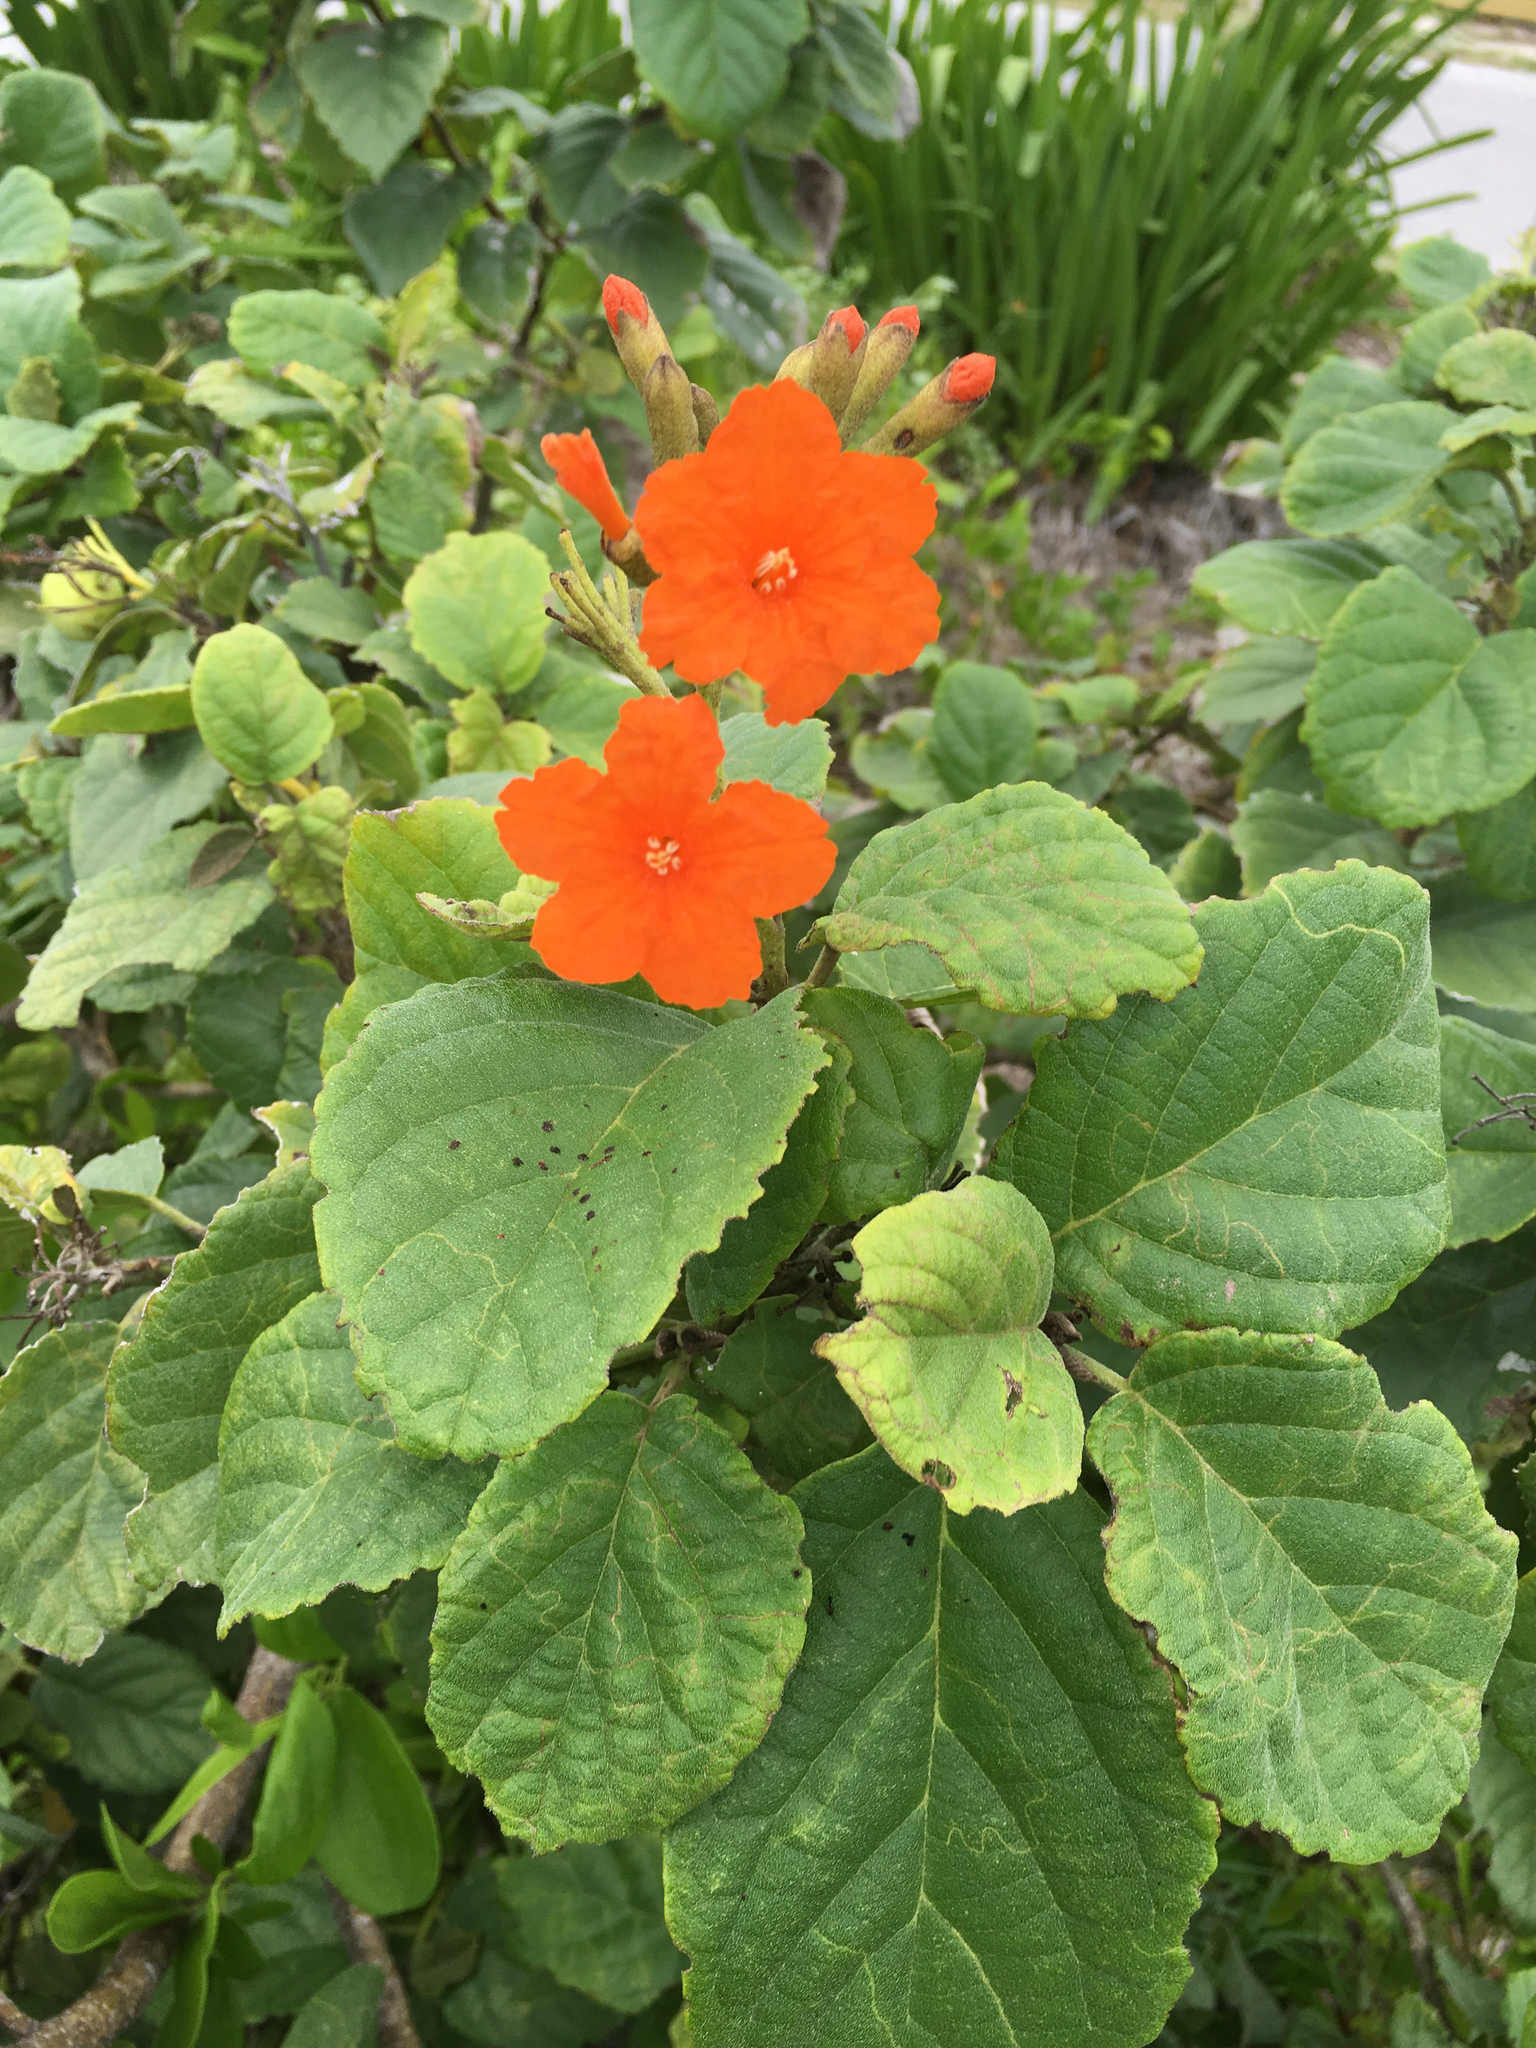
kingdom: Plantae
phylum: Tracheophyta
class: Magnoliopsida
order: Boraginales
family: Cordiaceae
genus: Cordia
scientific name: Cordia sebestena
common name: Largeleaf geigertree
